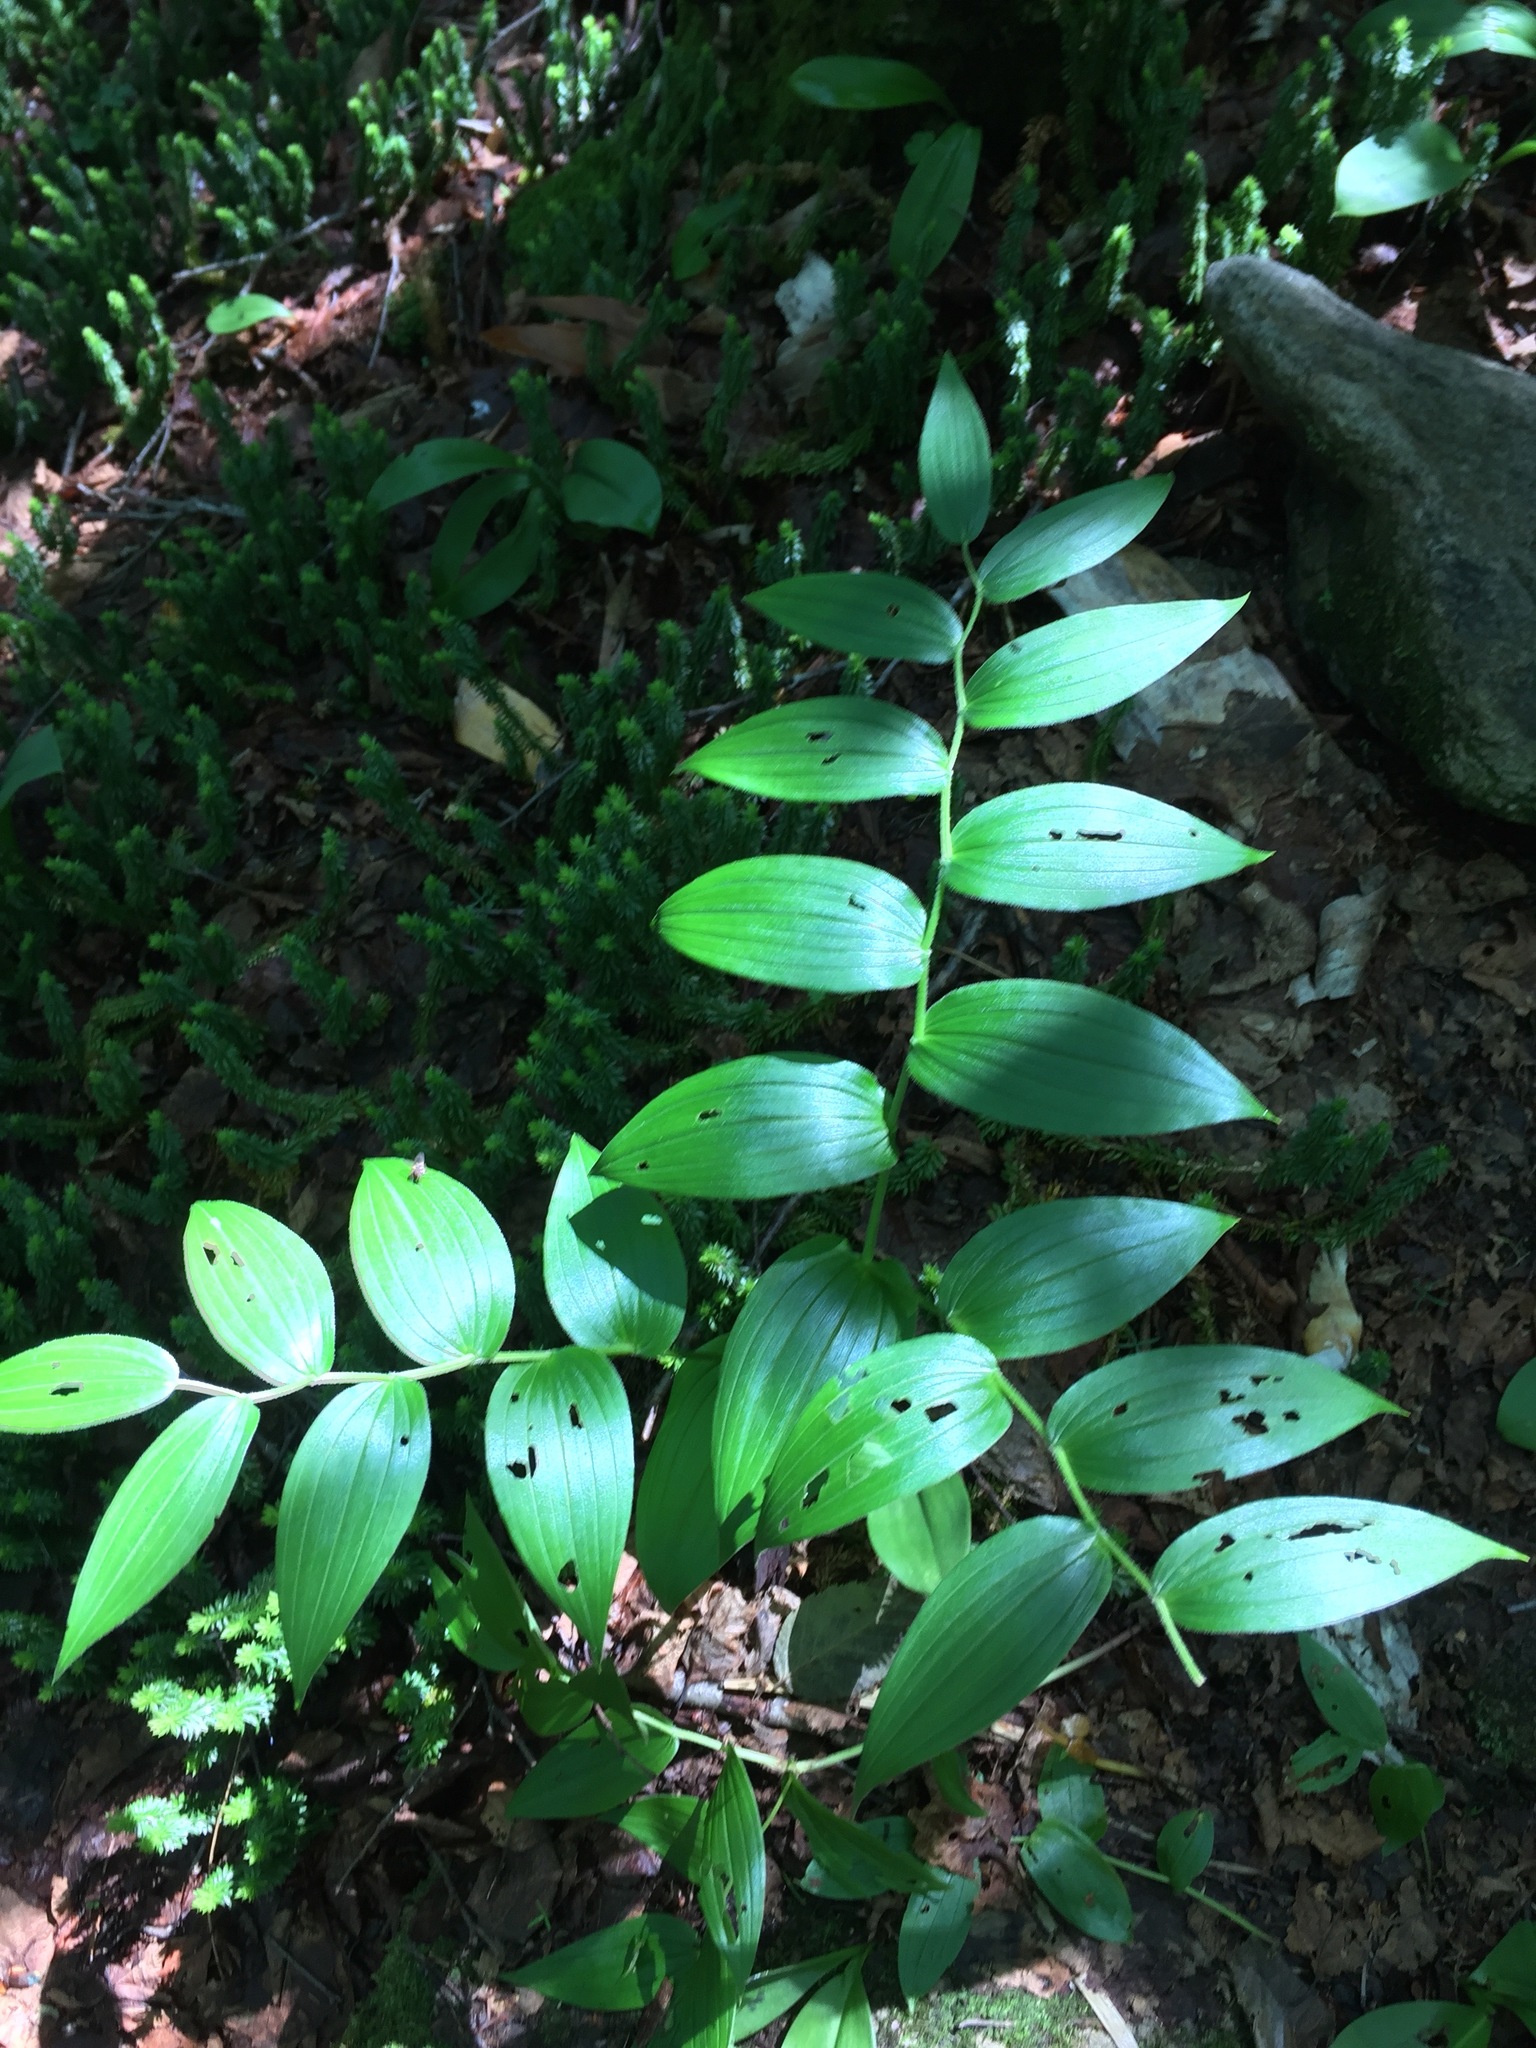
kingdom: Plantae
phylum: Tracheophyta
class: Liliopsida
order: Liliales
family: Liliaceae
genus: Streptopus
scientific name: Streptopus lanceolatus
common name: Rose mandarin
